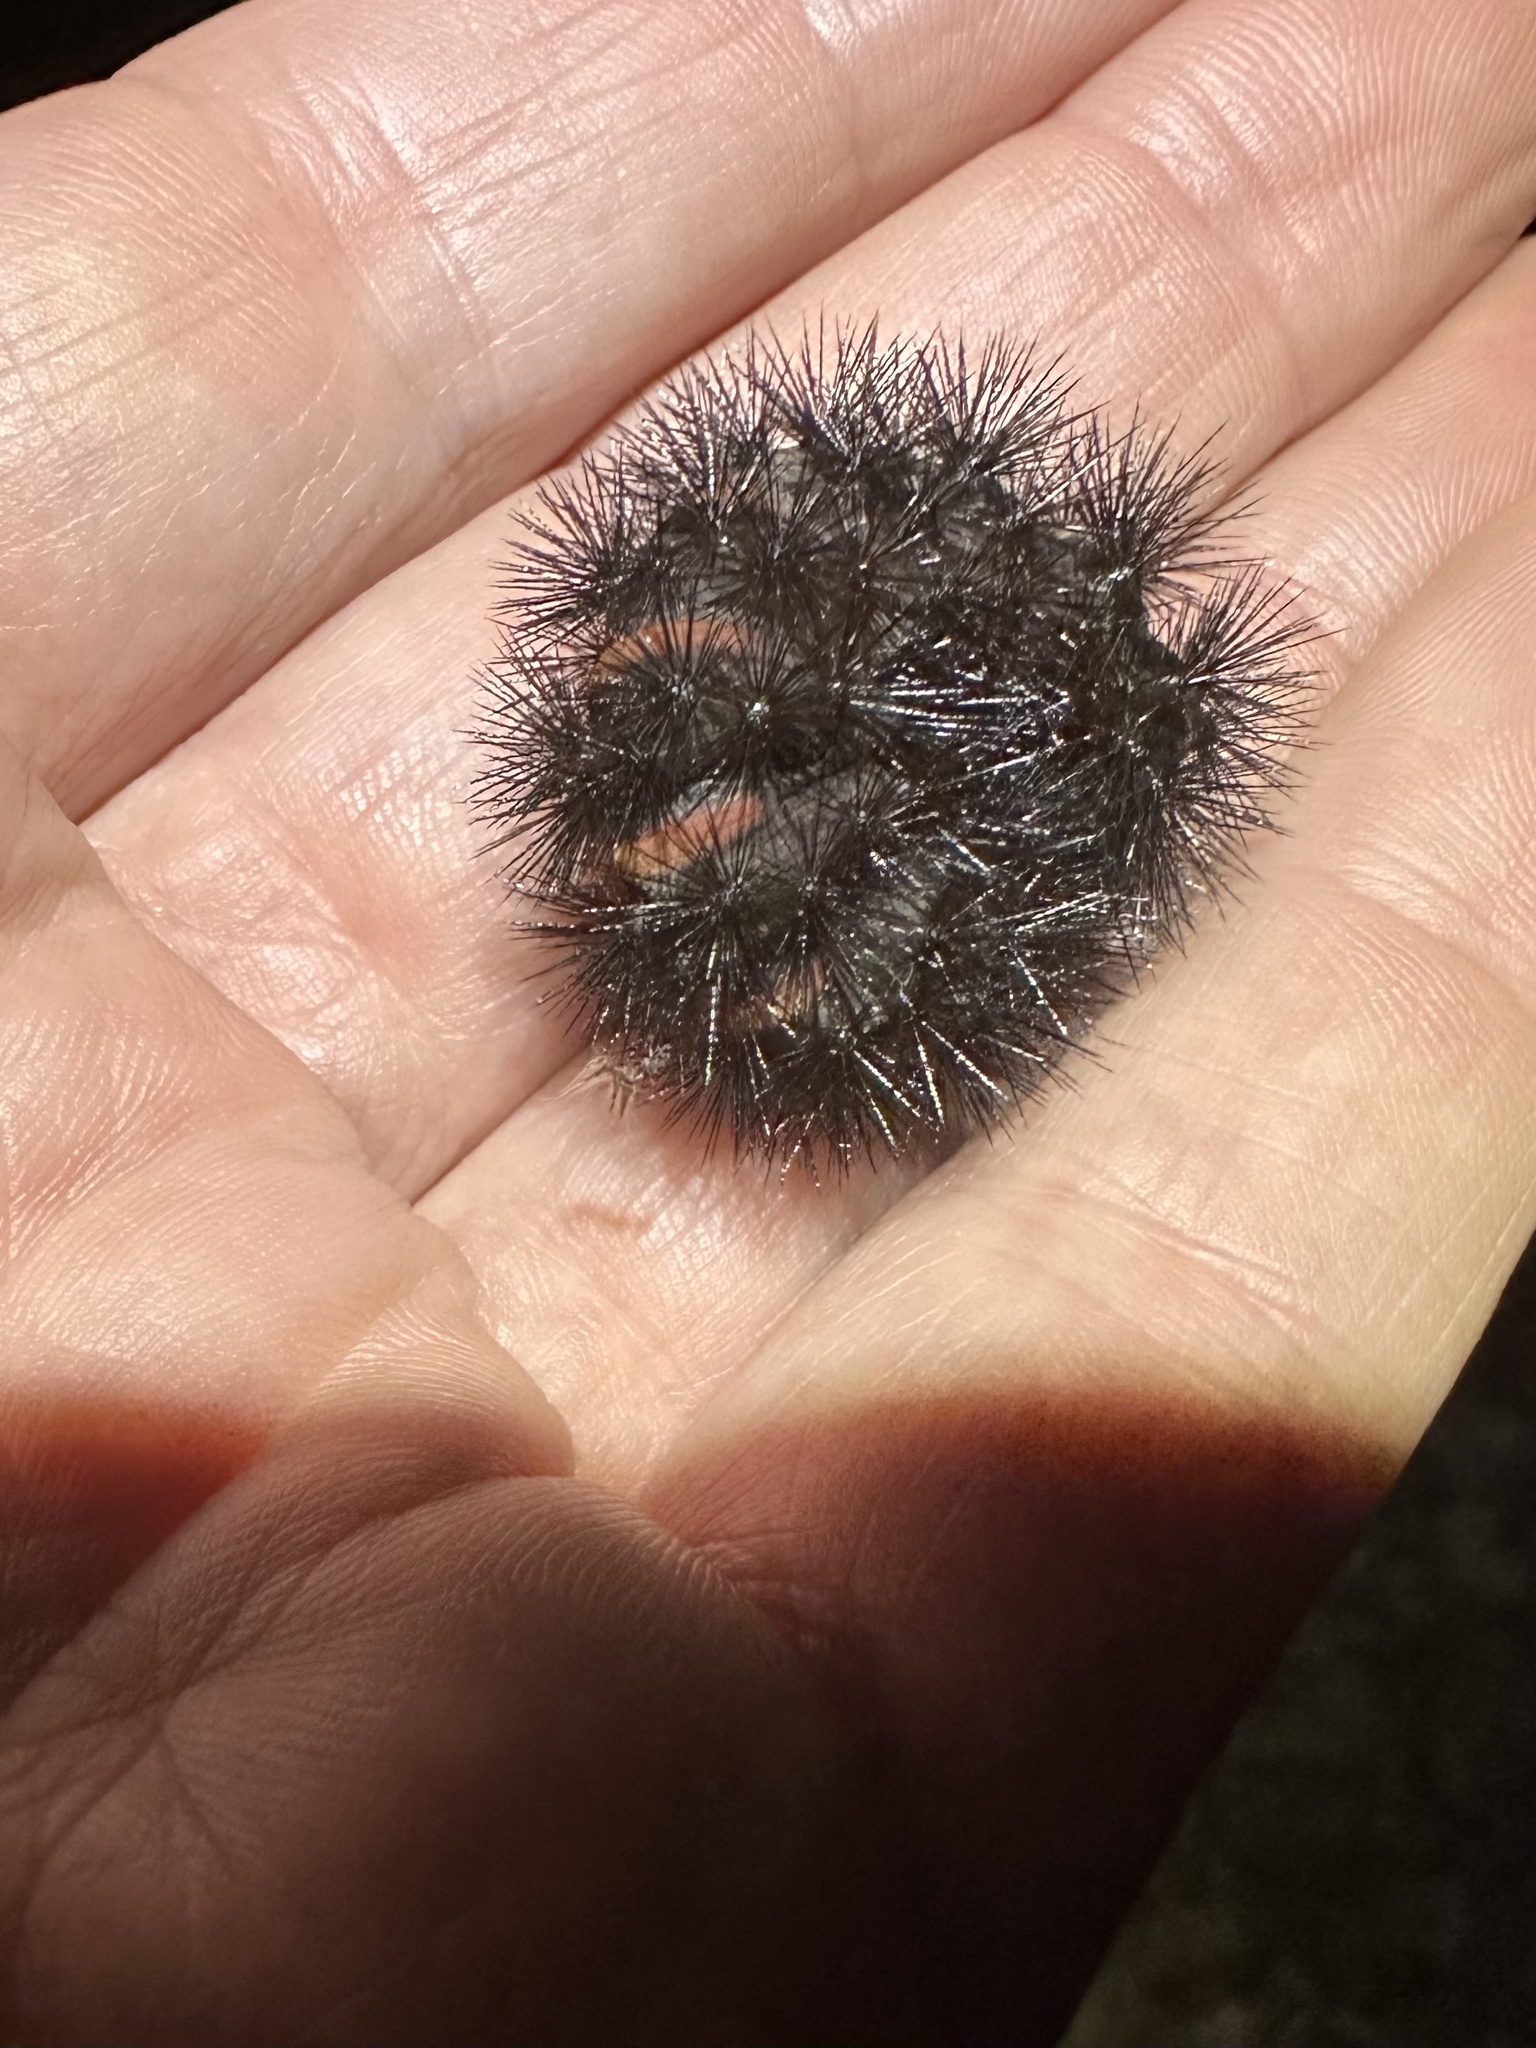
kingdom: Animalia
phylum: Arthropoda
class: Insecta
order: Lepidoptera
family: Erebidae
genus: Hypercompe
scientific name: Hypercompe scribonia
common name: Giant leopard moth
